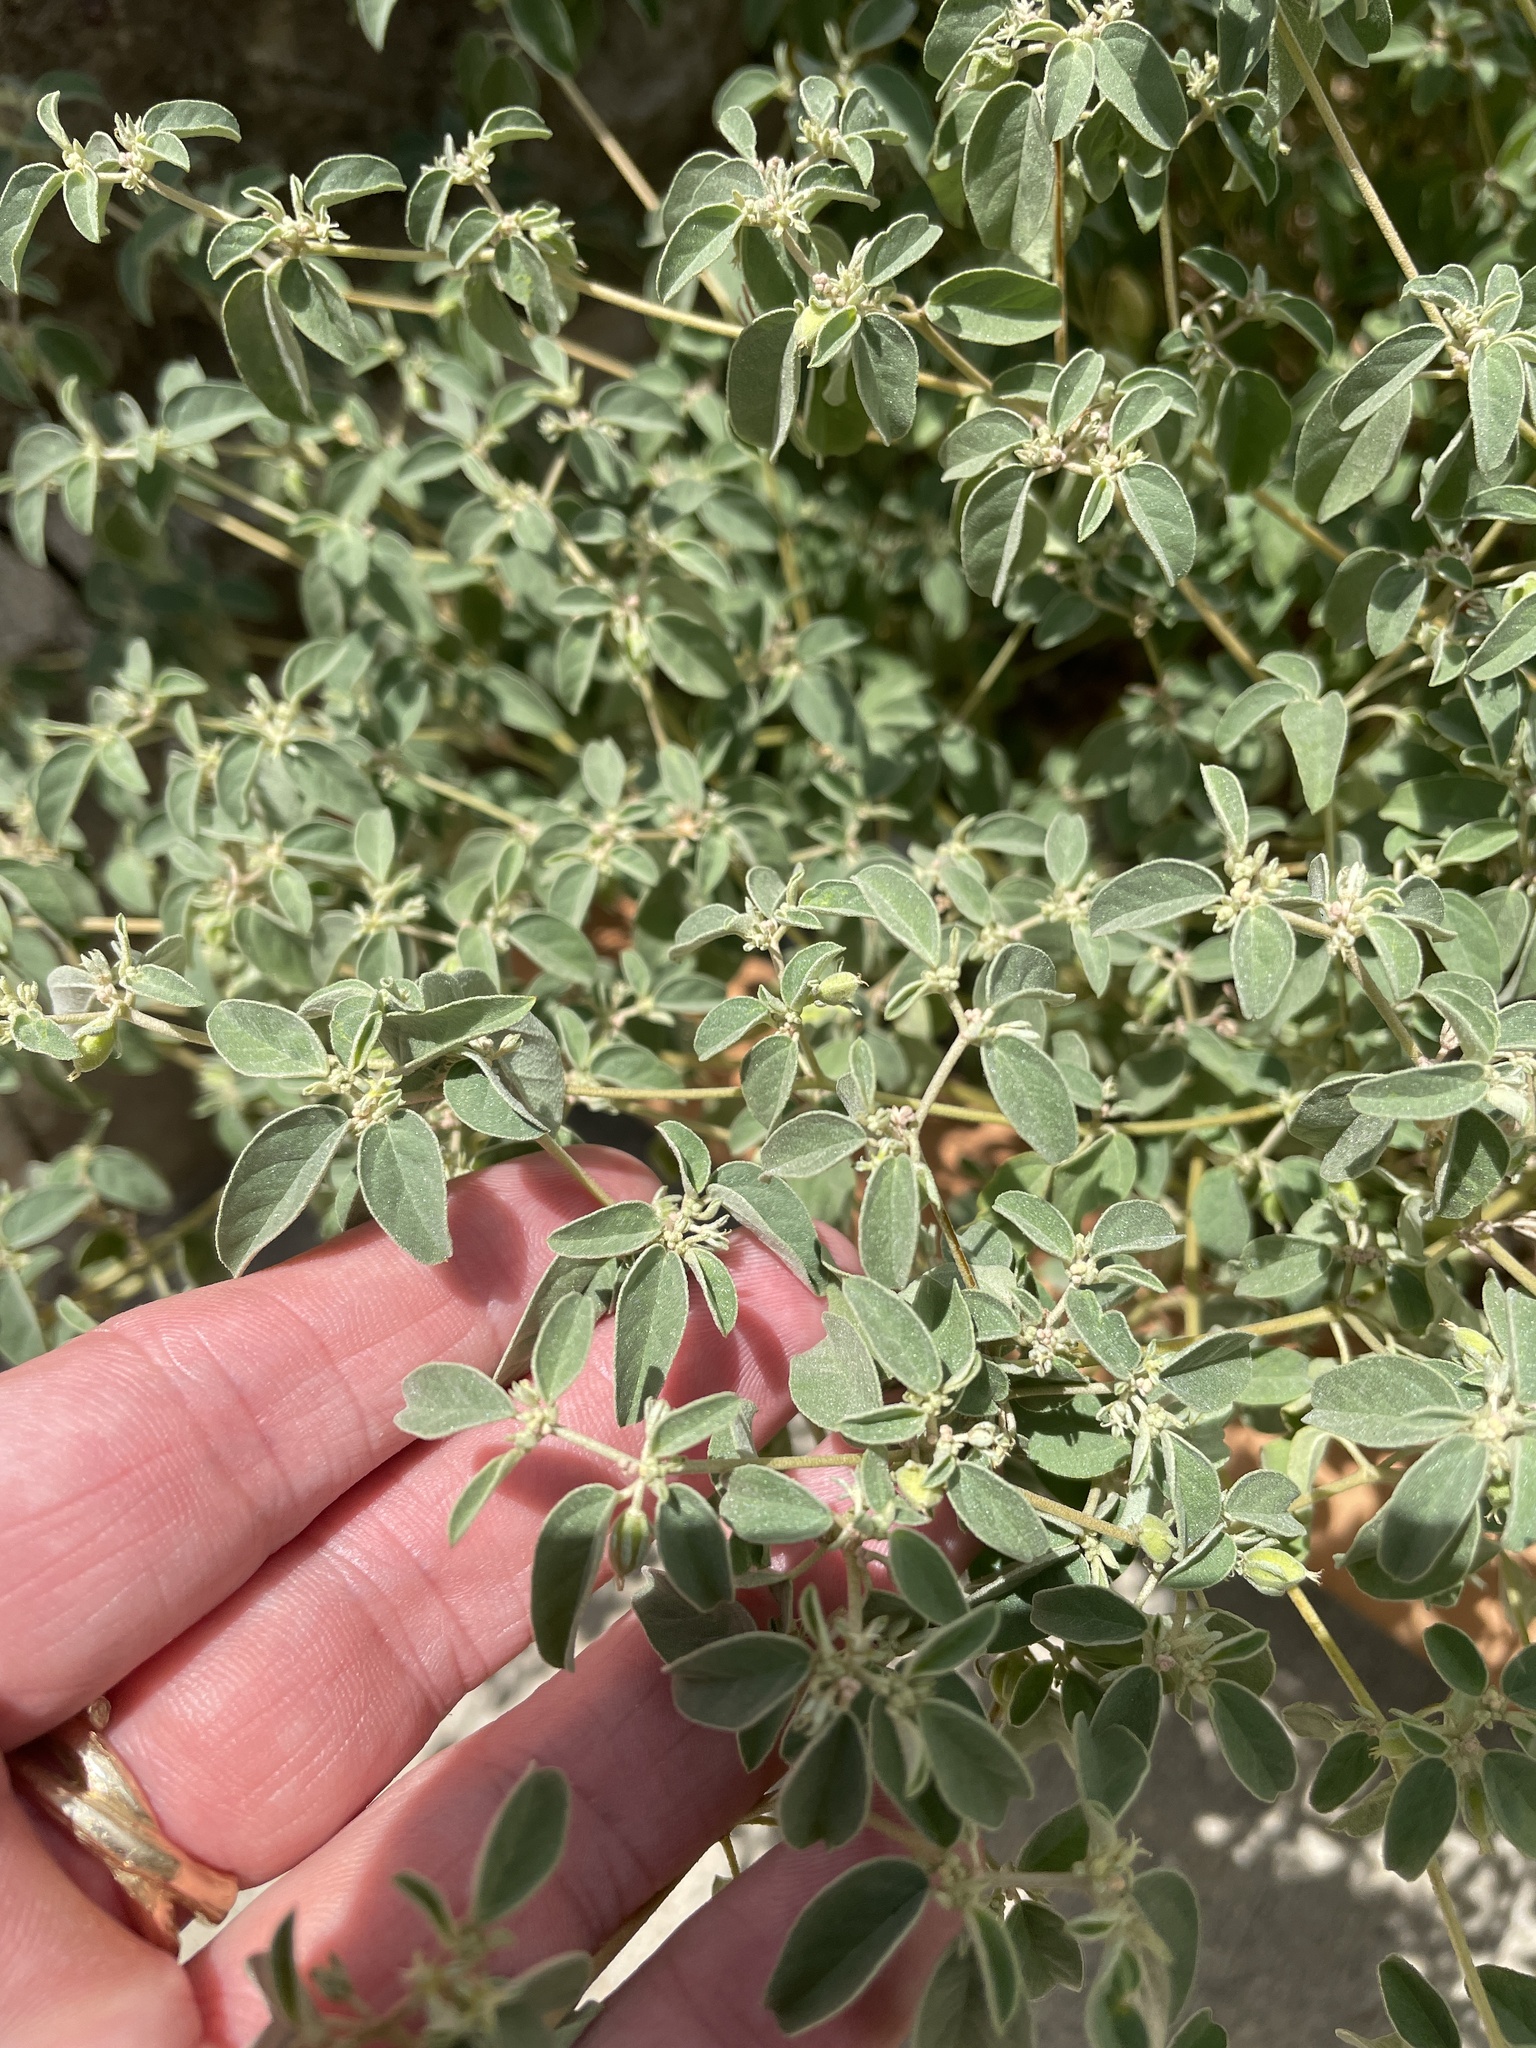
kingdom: Plantae
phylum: Tracheophyta
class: Magnoliopsida
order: Malpighiales
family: Euphorbiaceae
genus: Croton
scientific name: Croton monanthogynus
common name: One-seed croton
